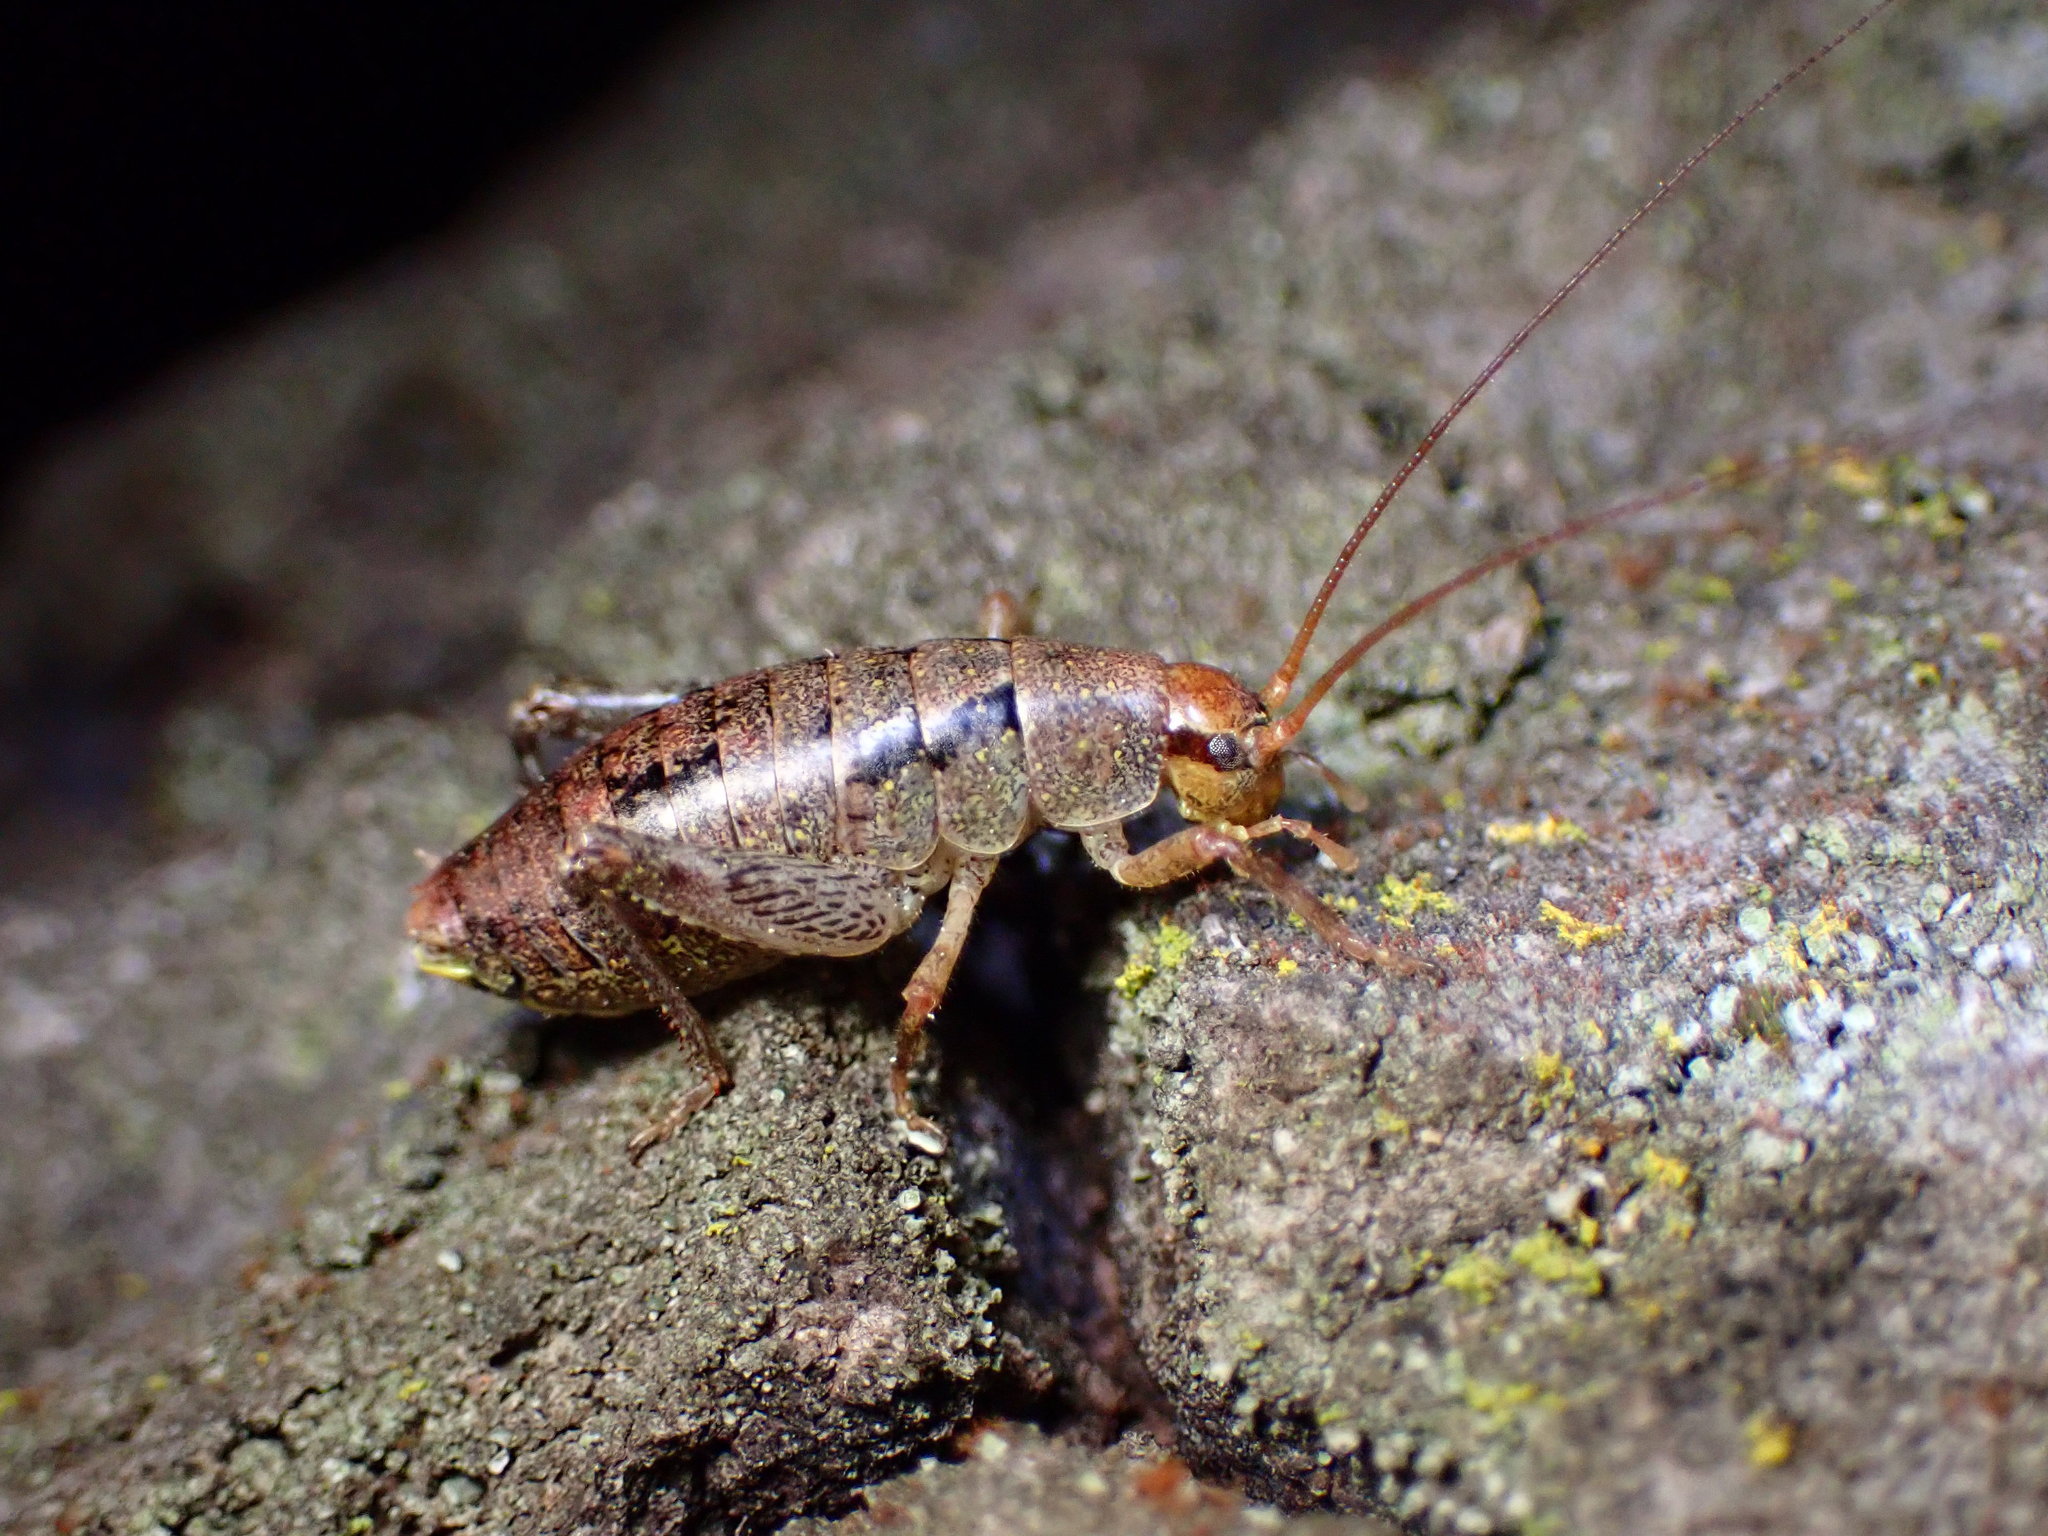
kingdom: Animalia
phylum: Arthropoda
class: Insecta
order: Orthoptera
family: Rhaphidophoridae
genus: Gammarotettix
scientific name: Gammarotettix bilobatus
